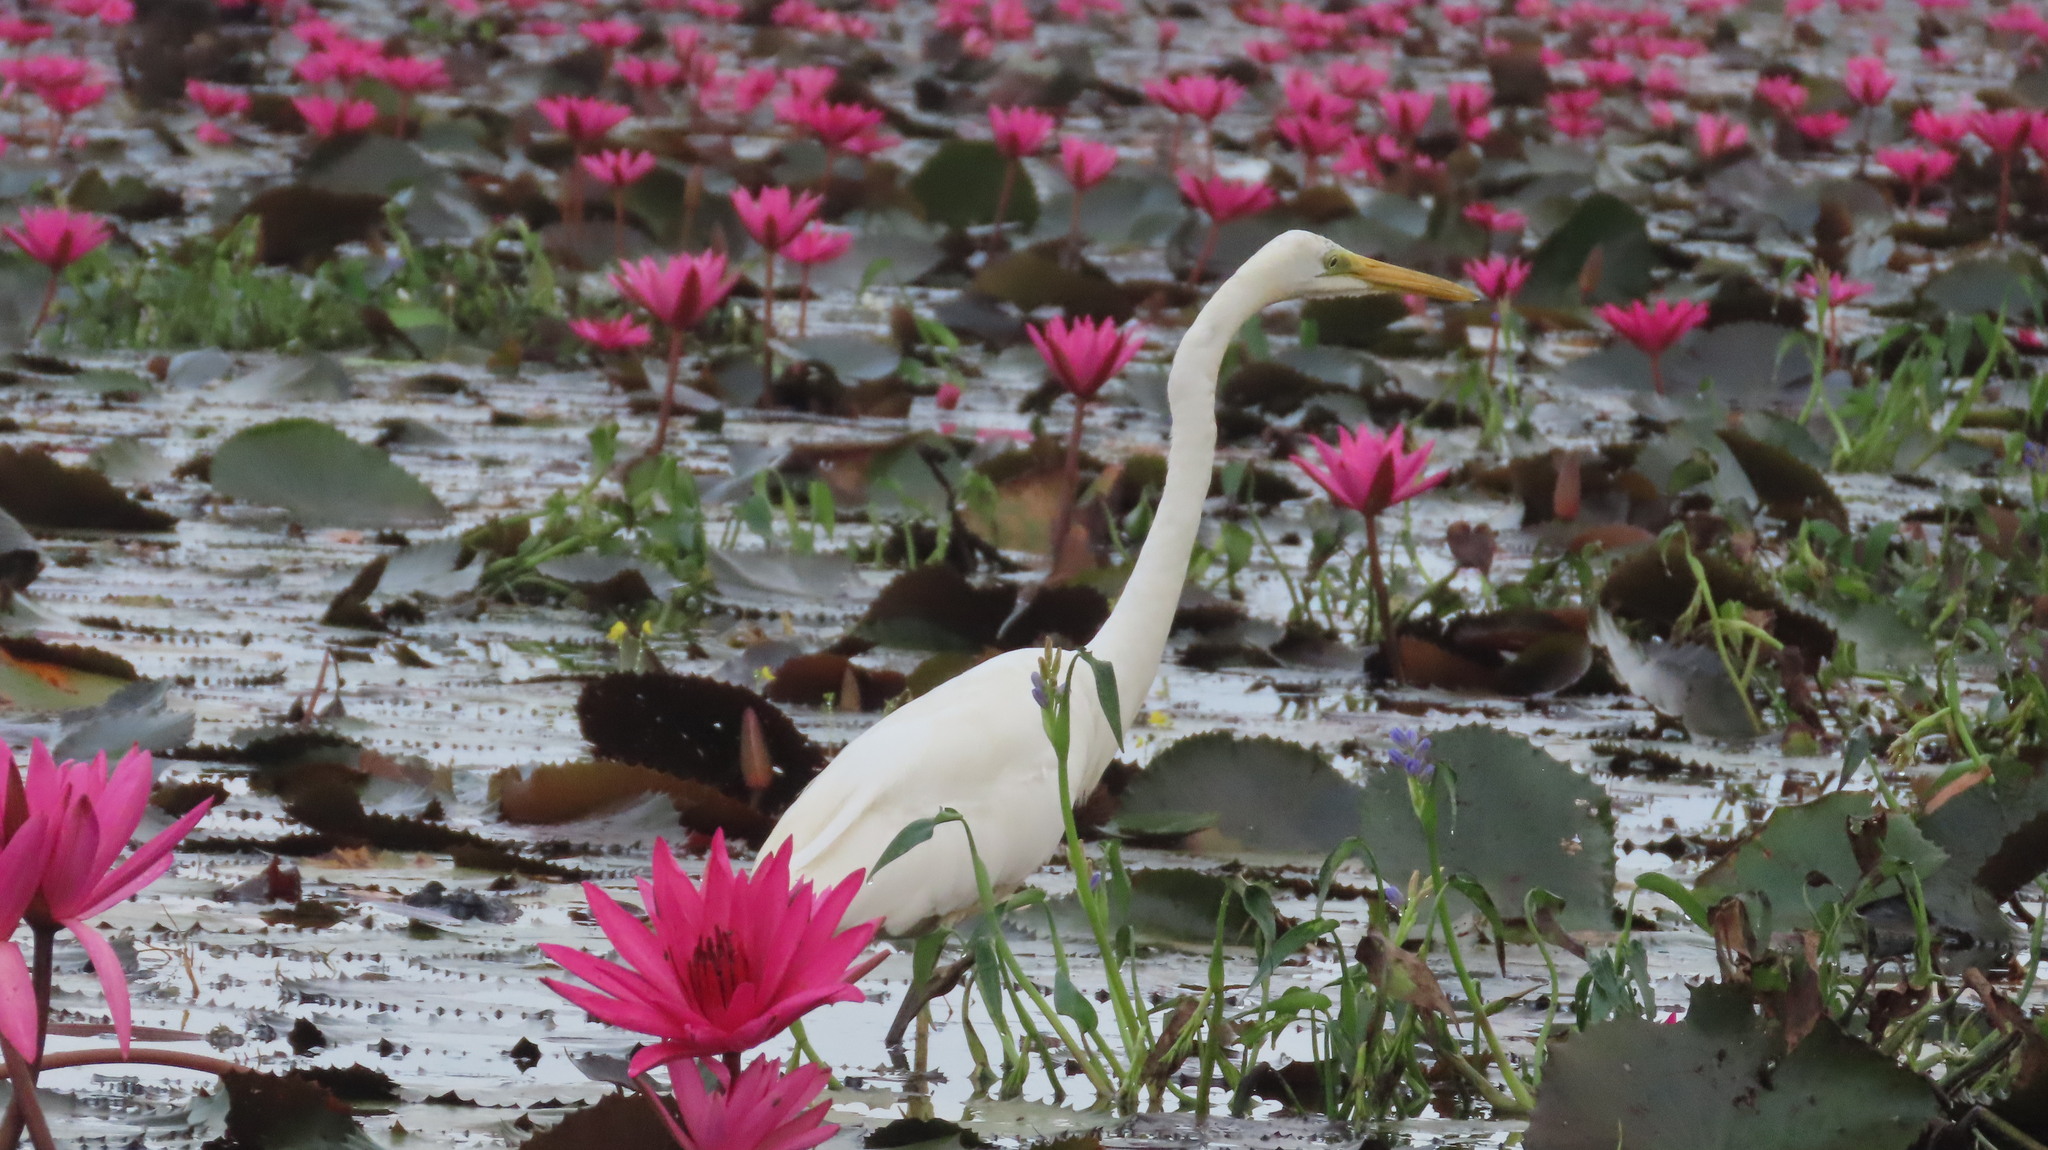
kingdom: Animalia
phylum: Chordata
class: Aves
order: Pelecaniformes
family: Ardeidae
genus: Ardea
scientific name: Ardea alba
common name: Great egret
